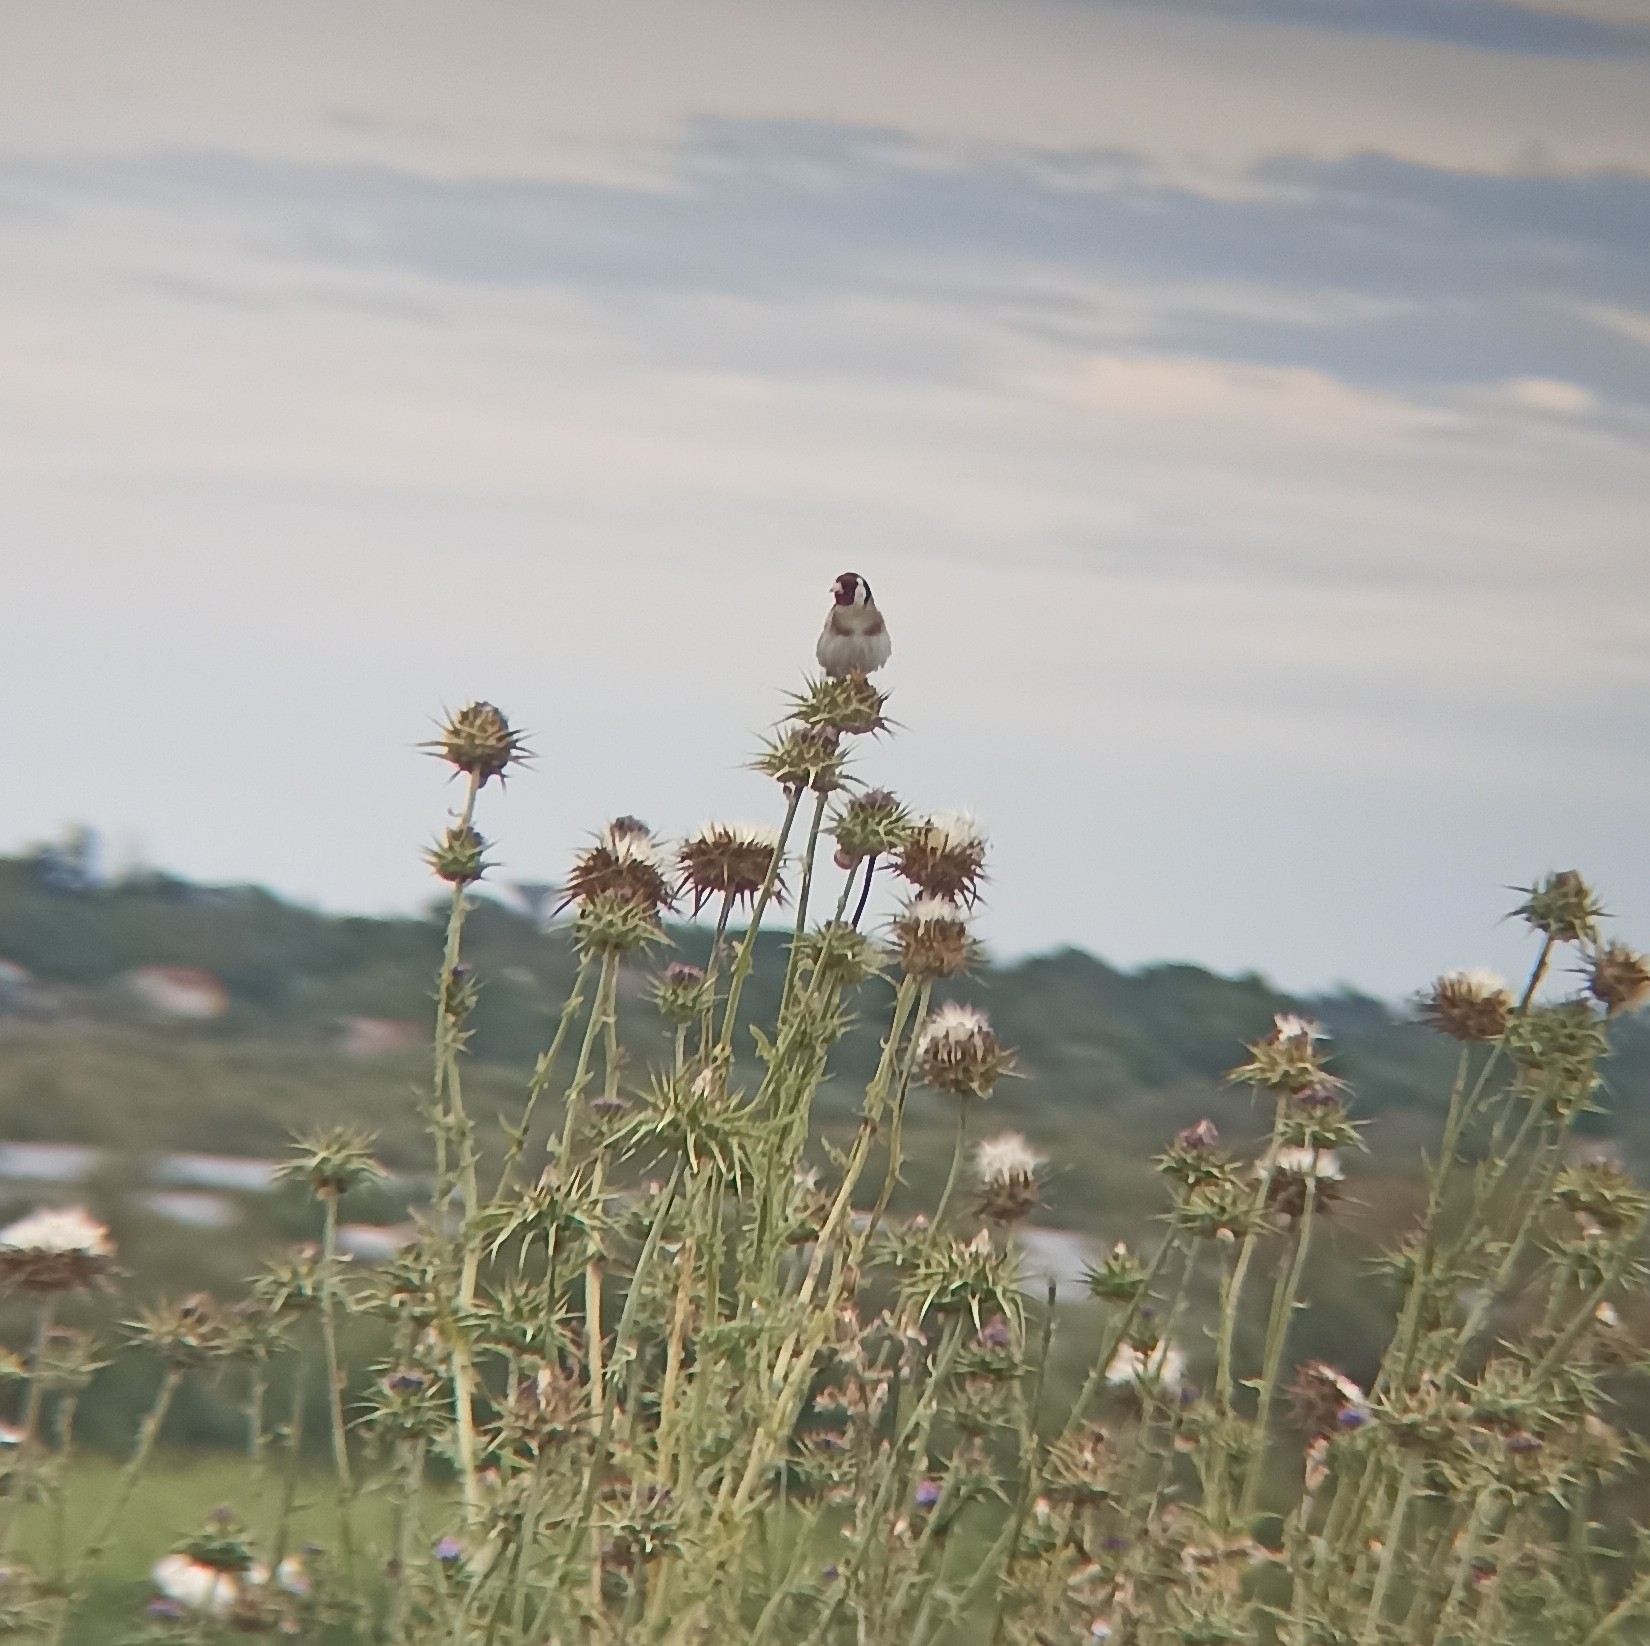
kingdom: Animalia
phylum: Chordata
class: Aves
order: Passeriformes
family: Fringillidae
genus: Carduelis
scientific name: Carduelis carduelis
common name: European goldfinch
